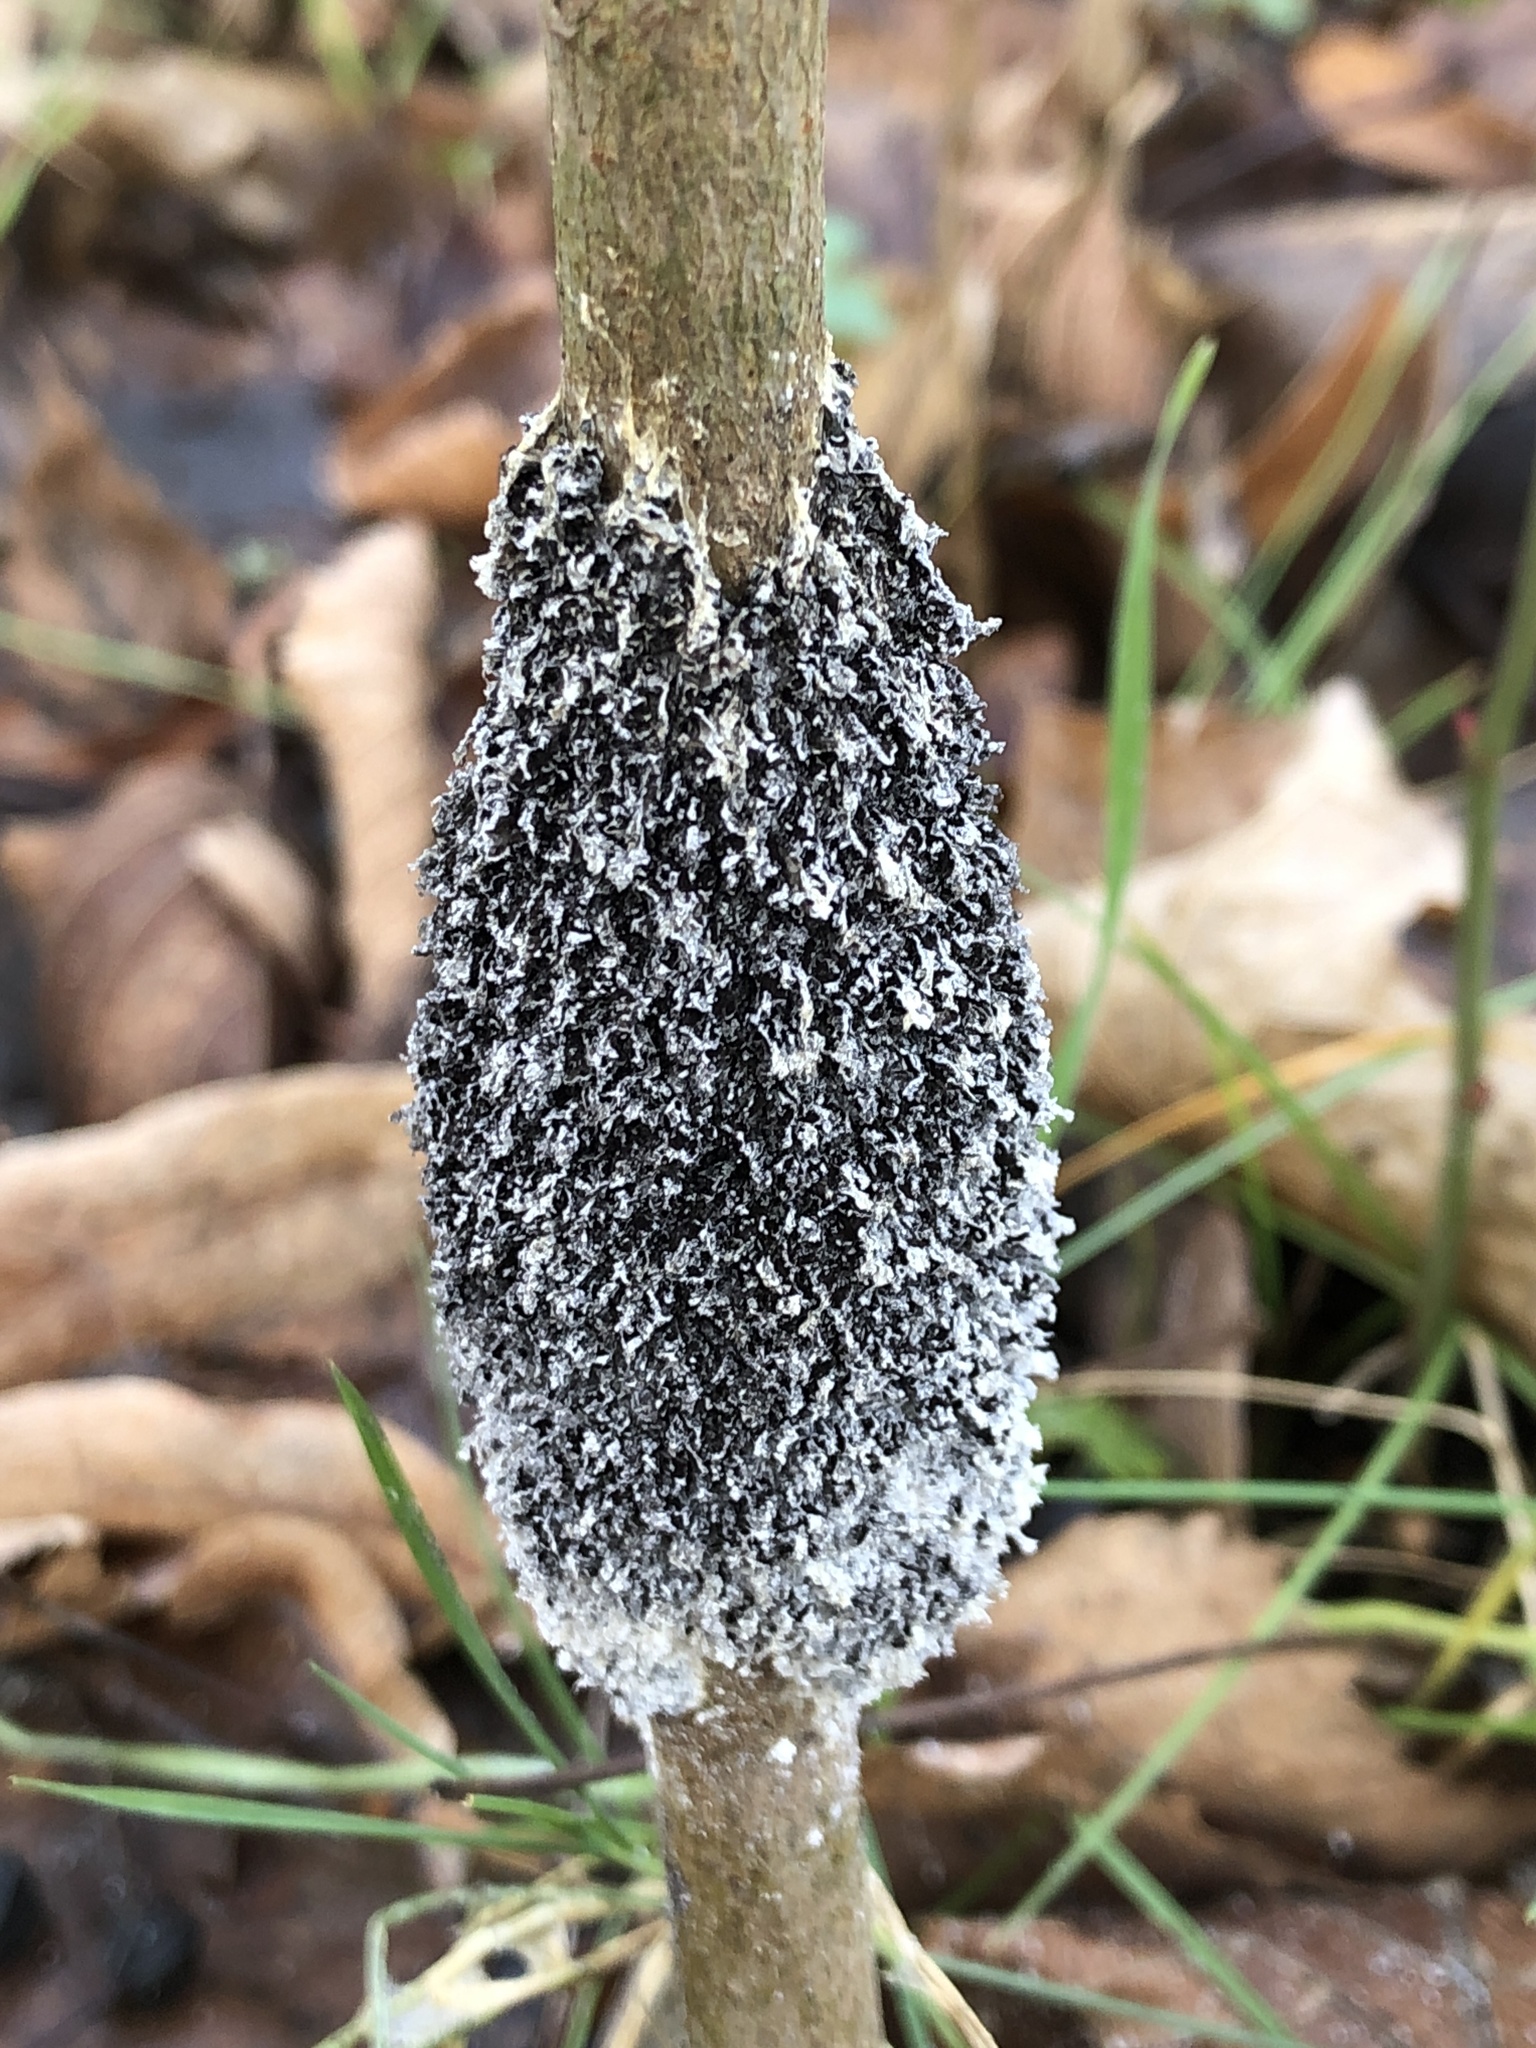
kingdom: Protozoa
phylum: Mycetozoa
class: Myxomycetes
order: Physarales
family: Physaraceae
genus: Didymium
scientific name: Didymium
